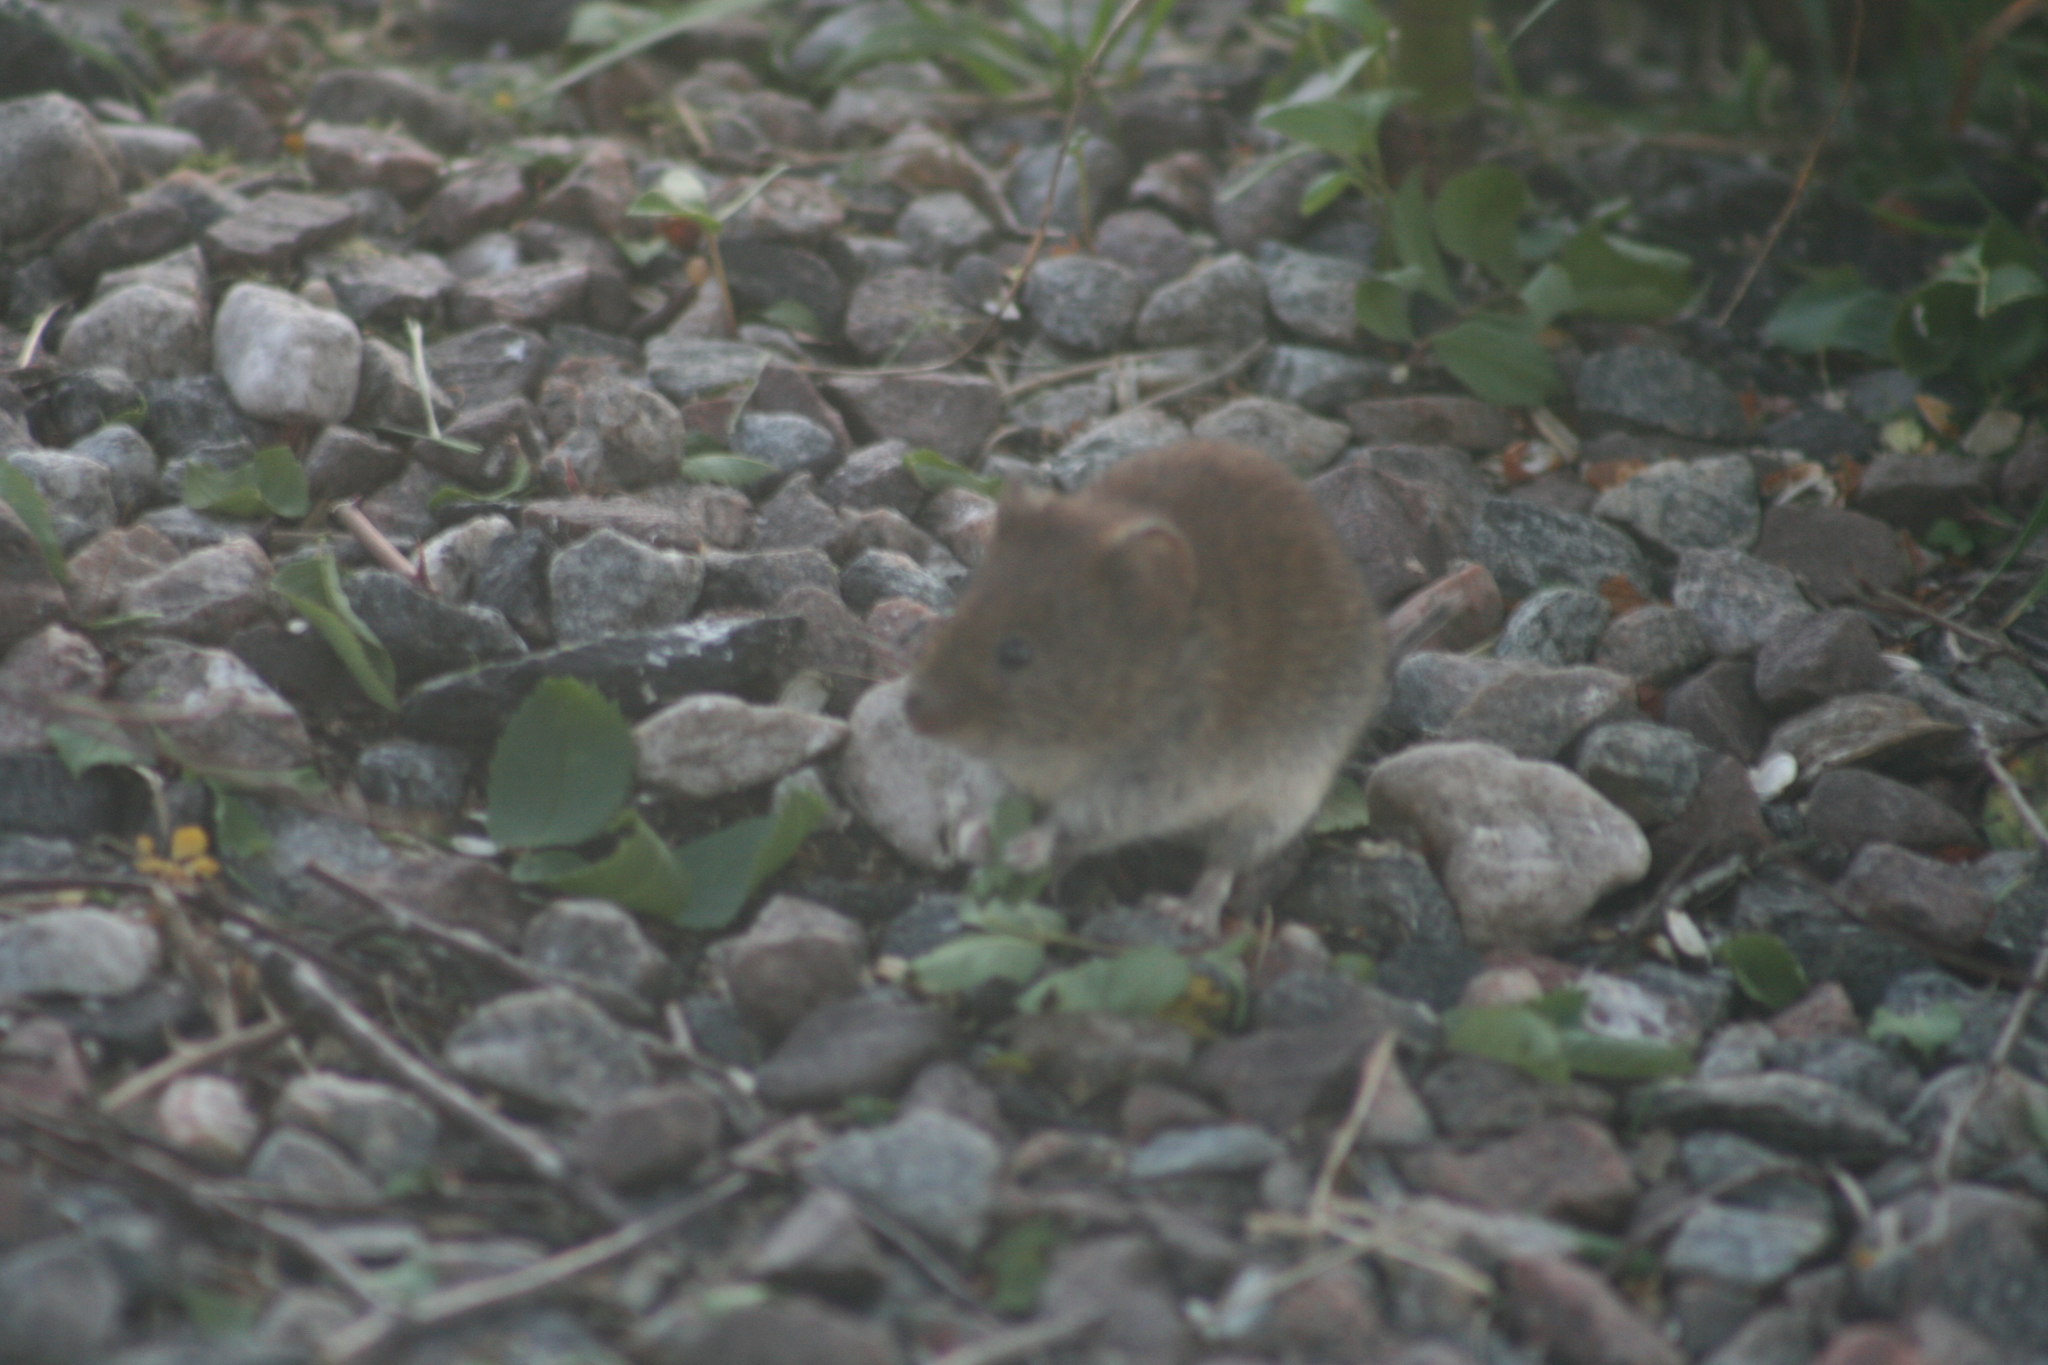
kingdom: Animalia
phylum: Chordata
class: Mammalia
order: Rodentia
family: Cricetidae
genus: Microtus
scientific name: Microtus agrestis
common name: Field vole
